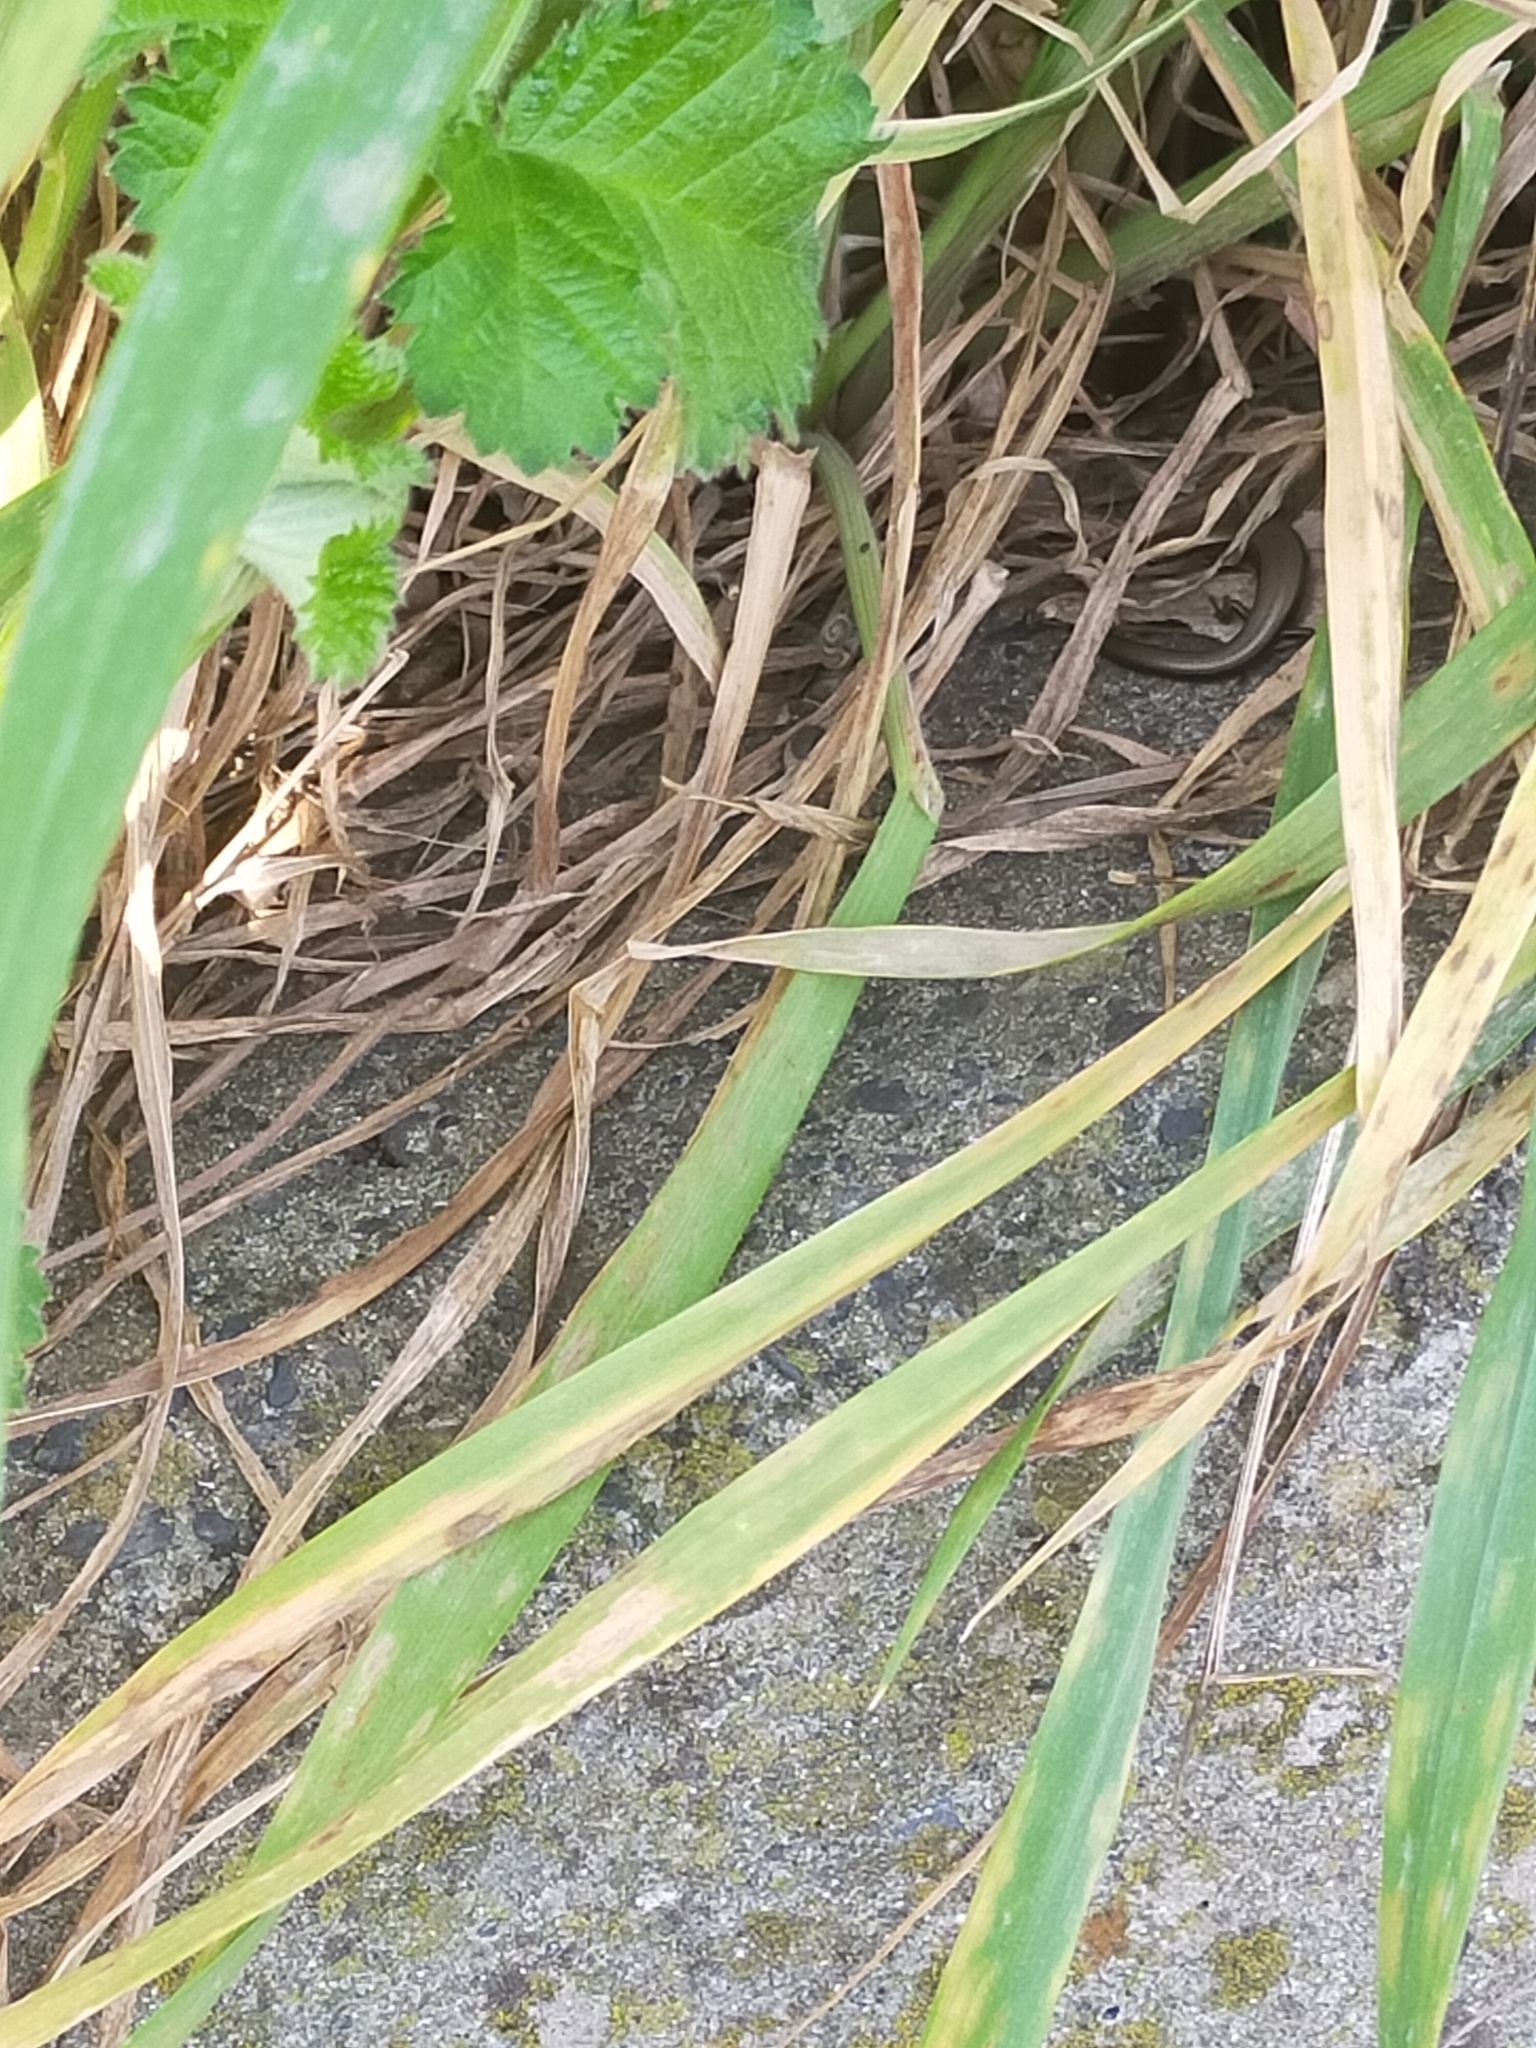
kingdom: Animalia
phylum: Chordata
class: Squamata
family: Scincidae
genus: Ablepharus
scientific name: Ablepharus kitaibelii
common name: Juniper skink
